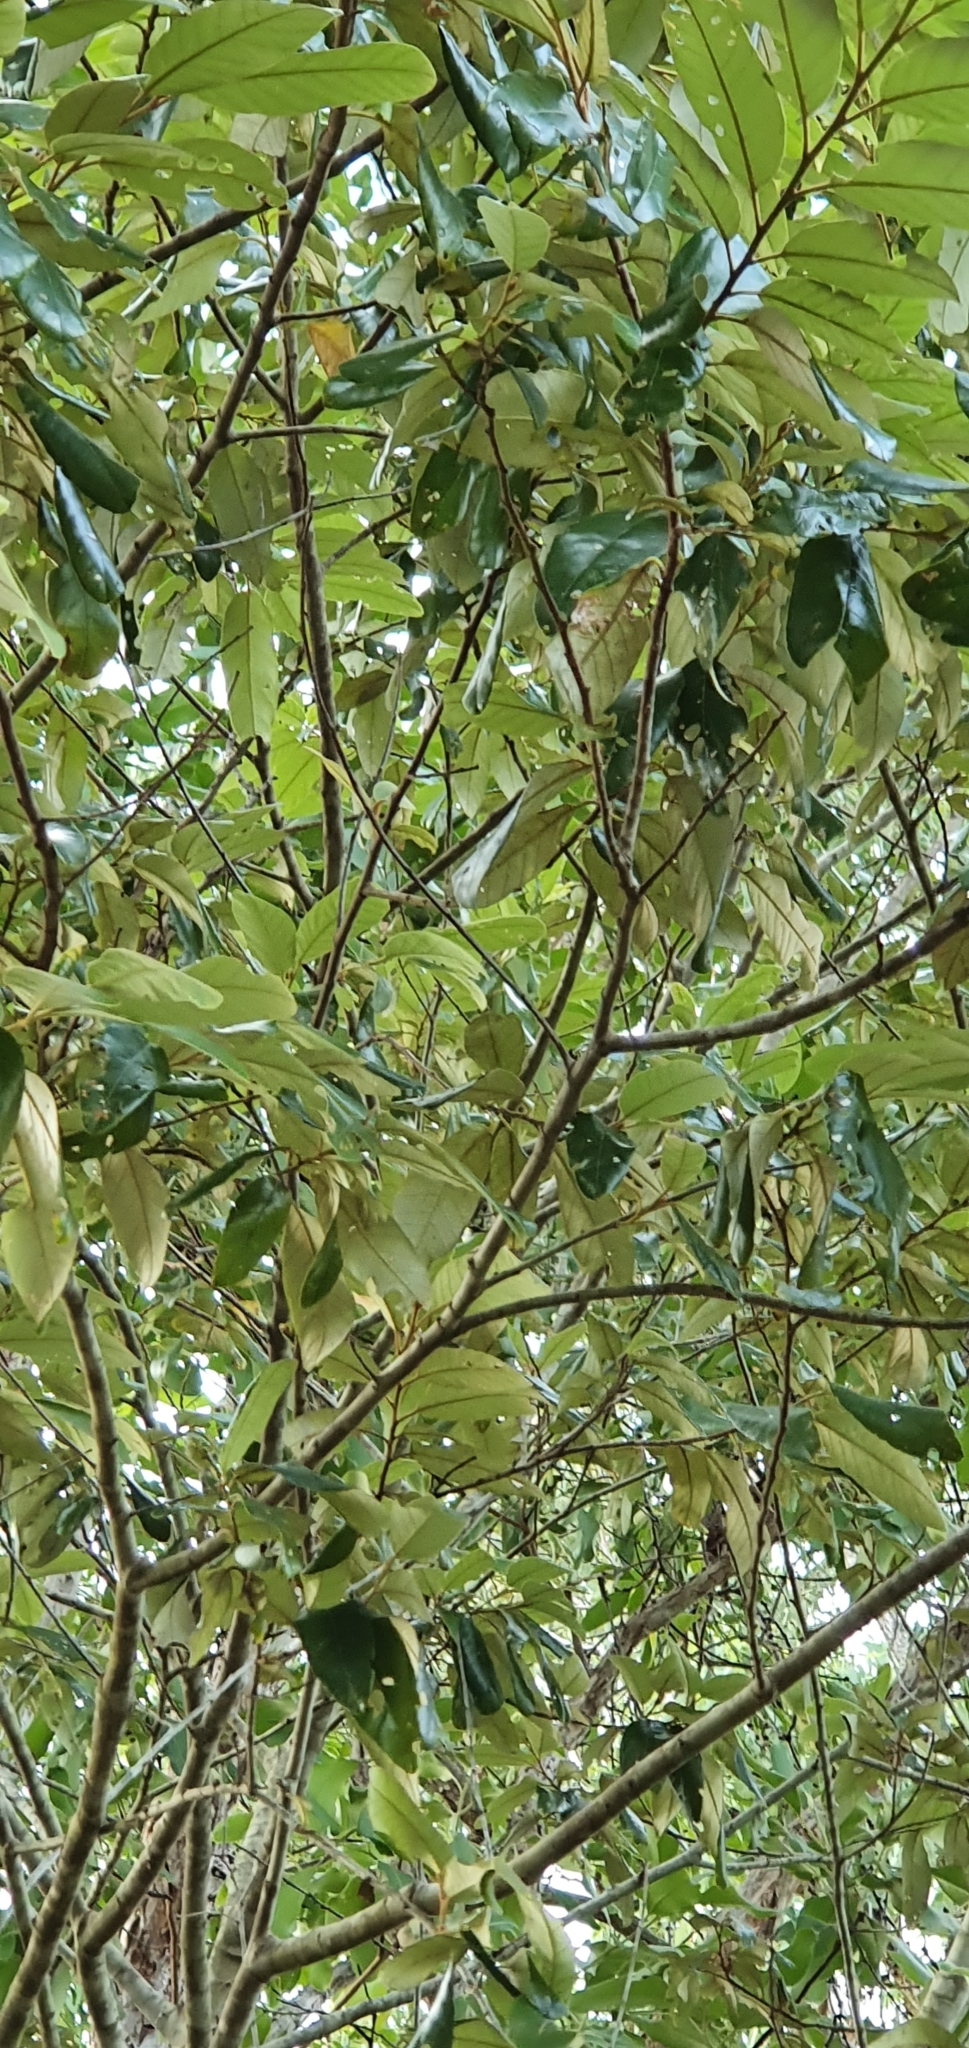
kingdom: Plantae
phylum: Tracheophyta
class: Magnoliopsida
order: Rosales
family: Rhamnaceae
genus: Alphitonia
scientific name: Alphitonia excelsa
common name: Red ash
